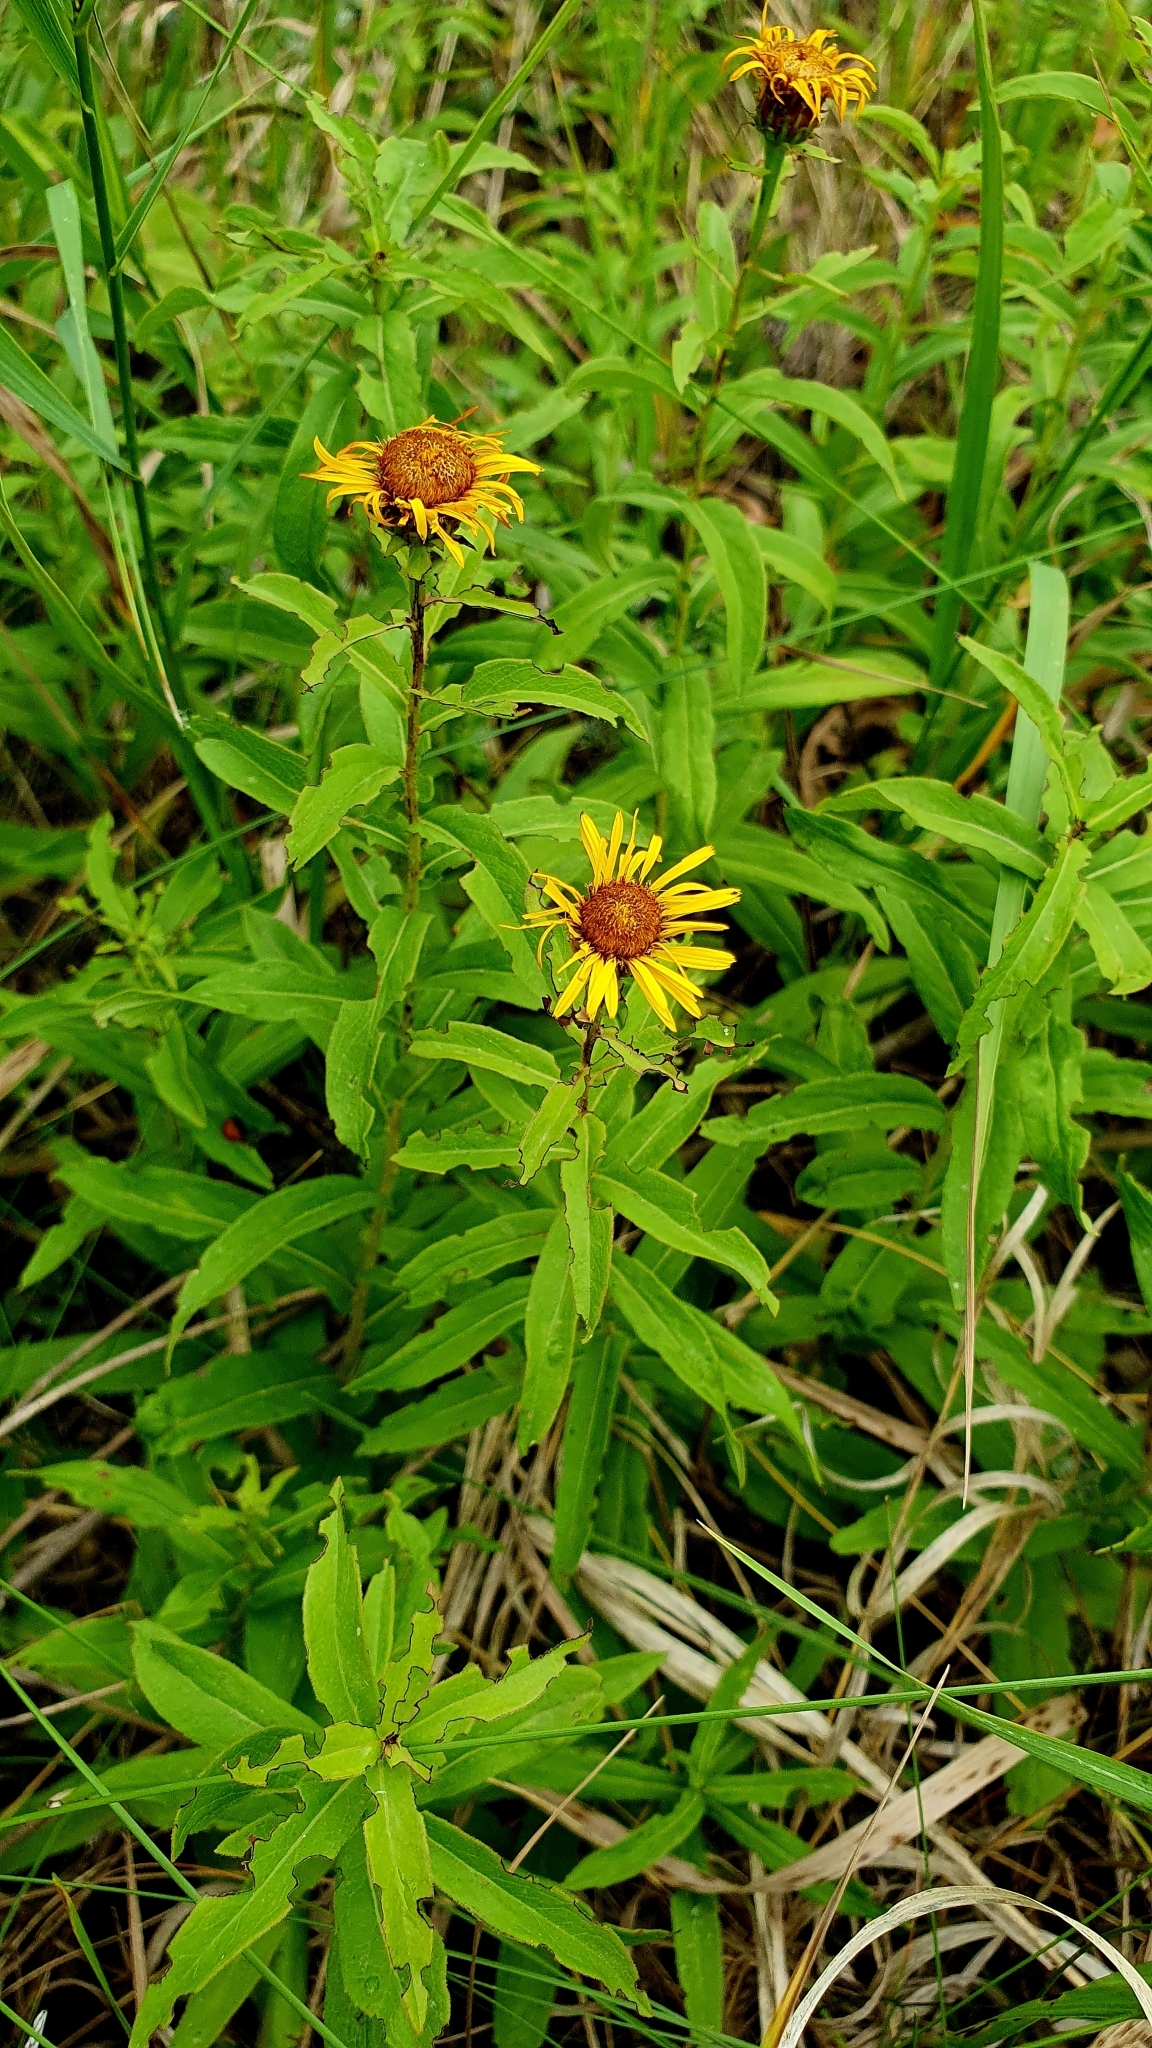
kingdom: Plantae
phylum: Tracheophyta
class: Magnoliopsida
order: Asterales
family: Asteraceae
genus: Pentanema
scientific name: Pentanema salicinum
